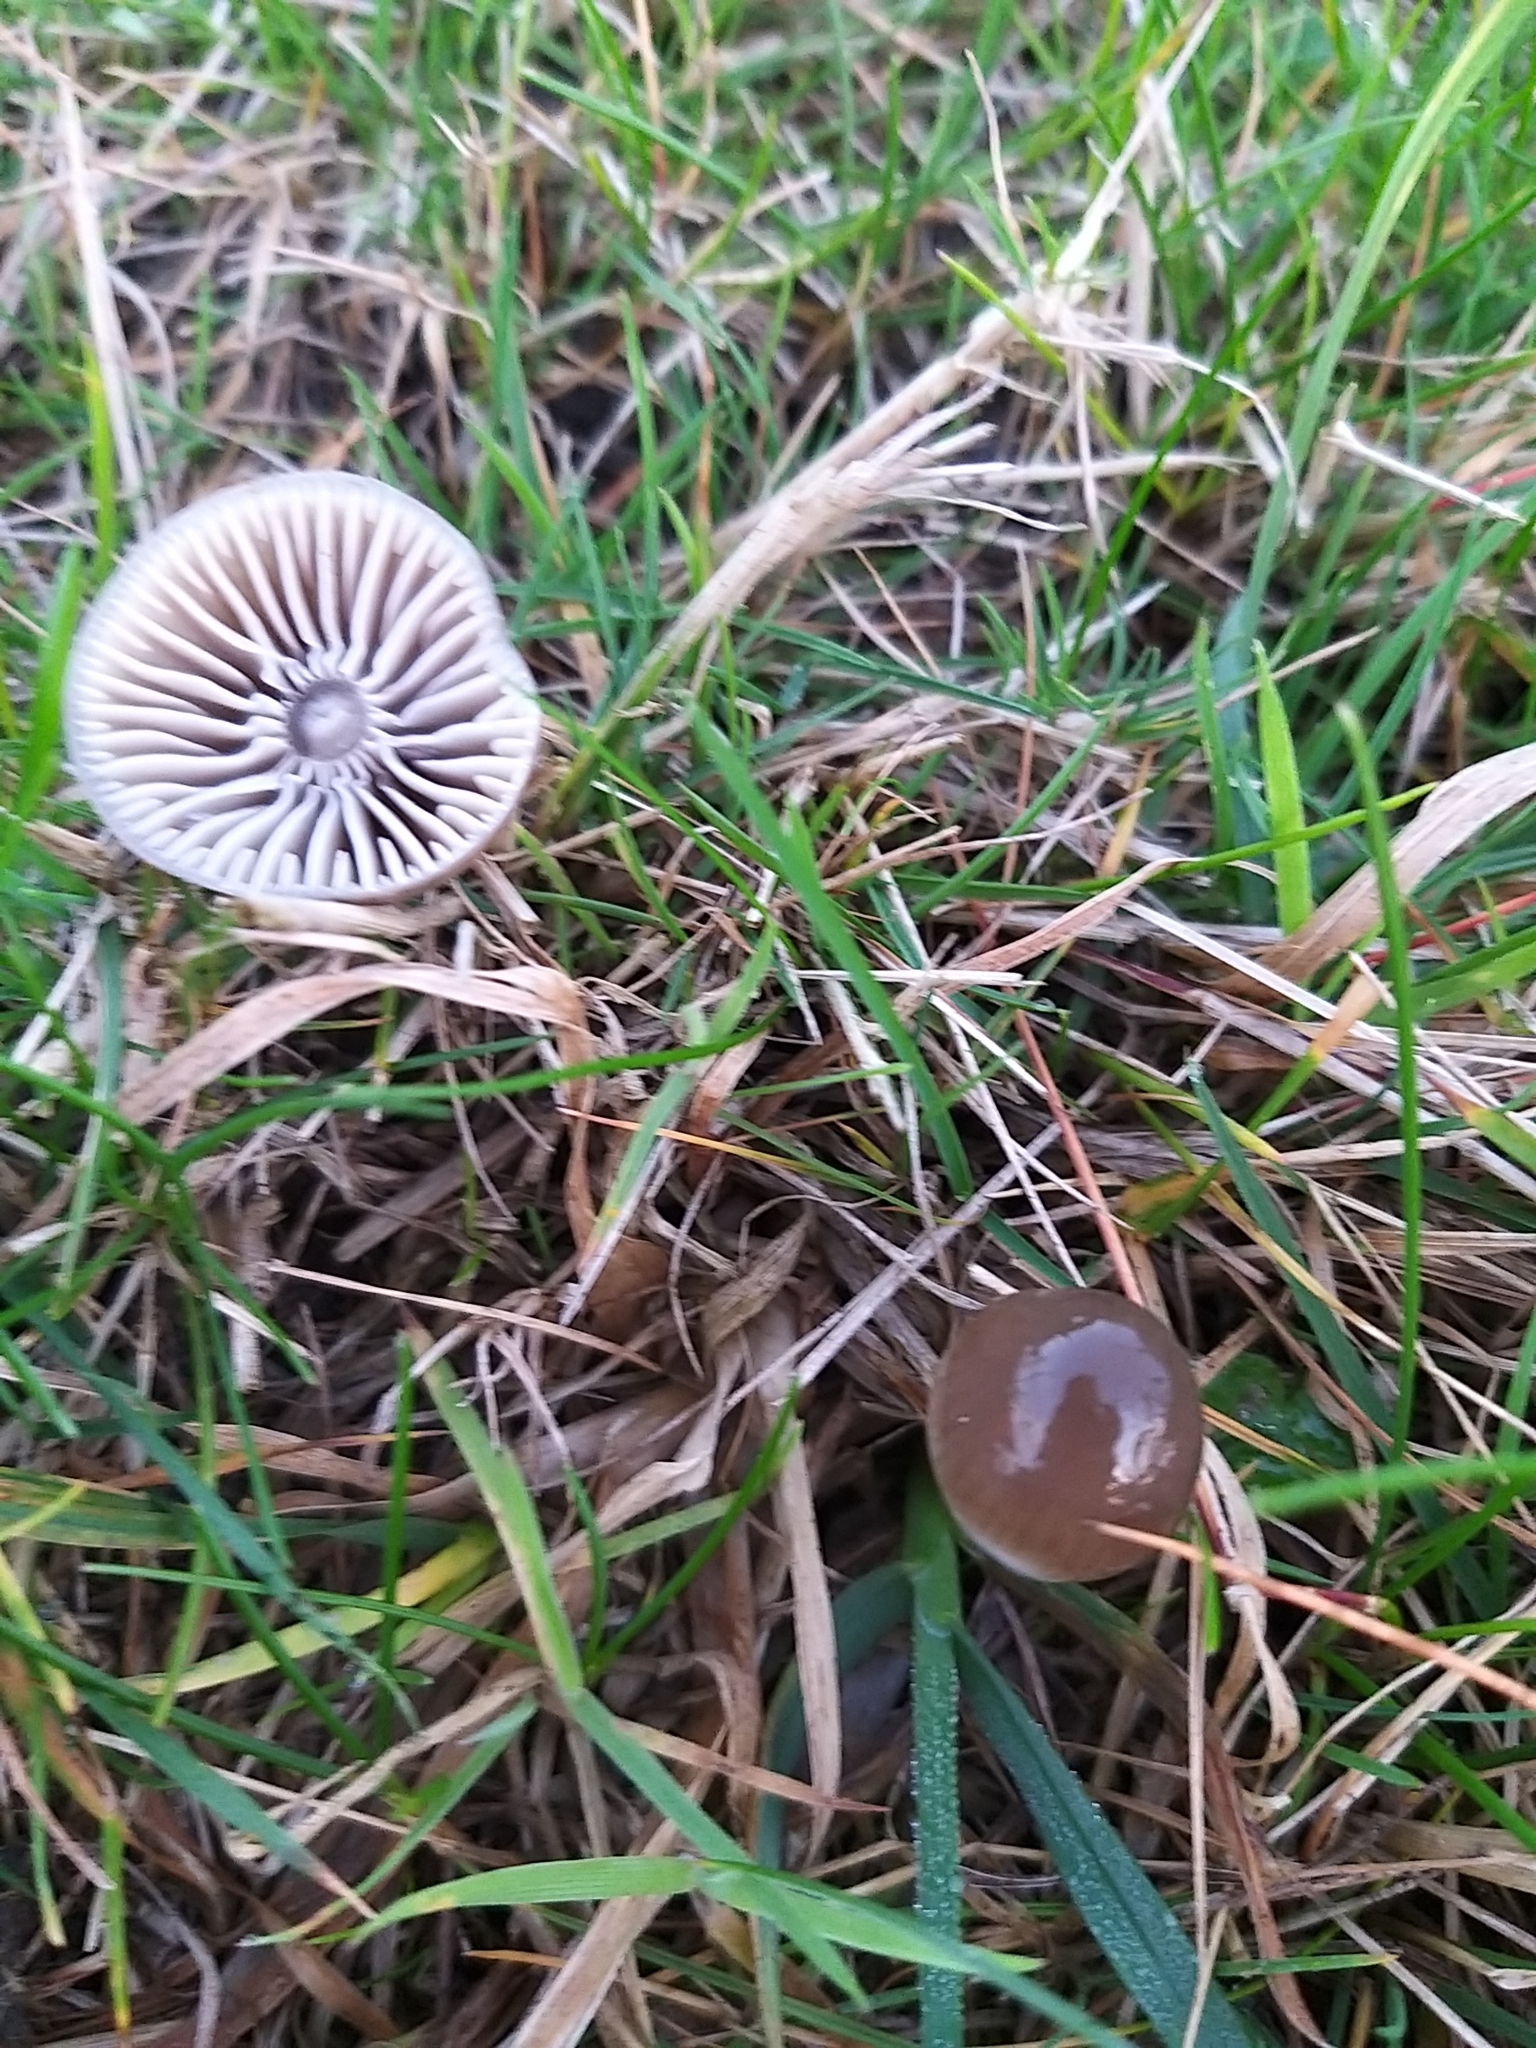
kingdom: Fungi
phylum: Basidiomycota
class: Agaricomycetes
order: Agaricales
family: Hygrophoraceae
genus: Gliophorus
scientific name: Gliophorus irrigatus
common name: Slimy waxcap
